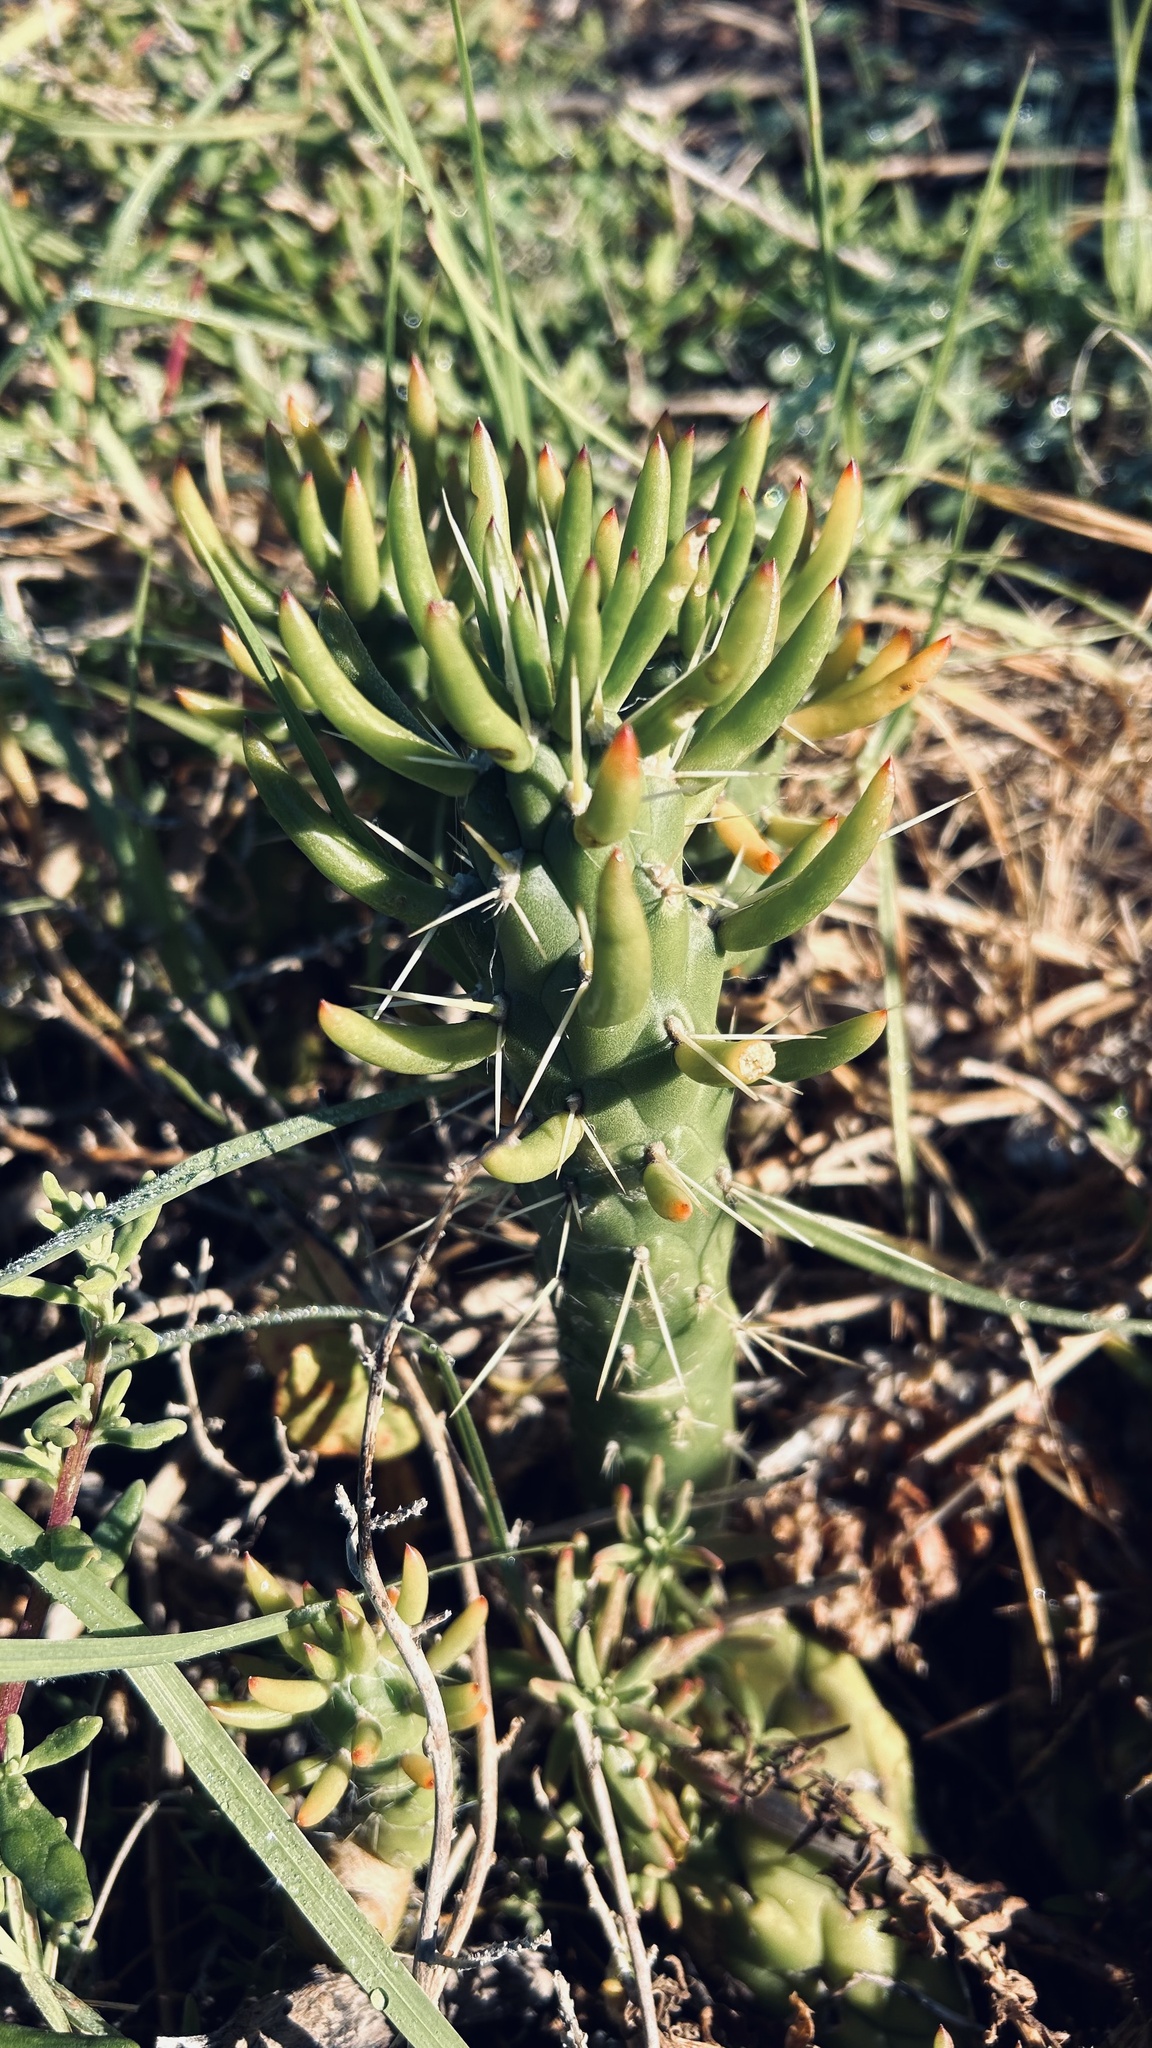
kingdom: Plantae
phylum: Tracheophyta
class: Magnoliopsida
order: Caryophyllales
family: Cactaceae
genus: Austrocylindropuntia
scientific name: Austrocylindropuntia subulata
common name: Eve's needle cactus
